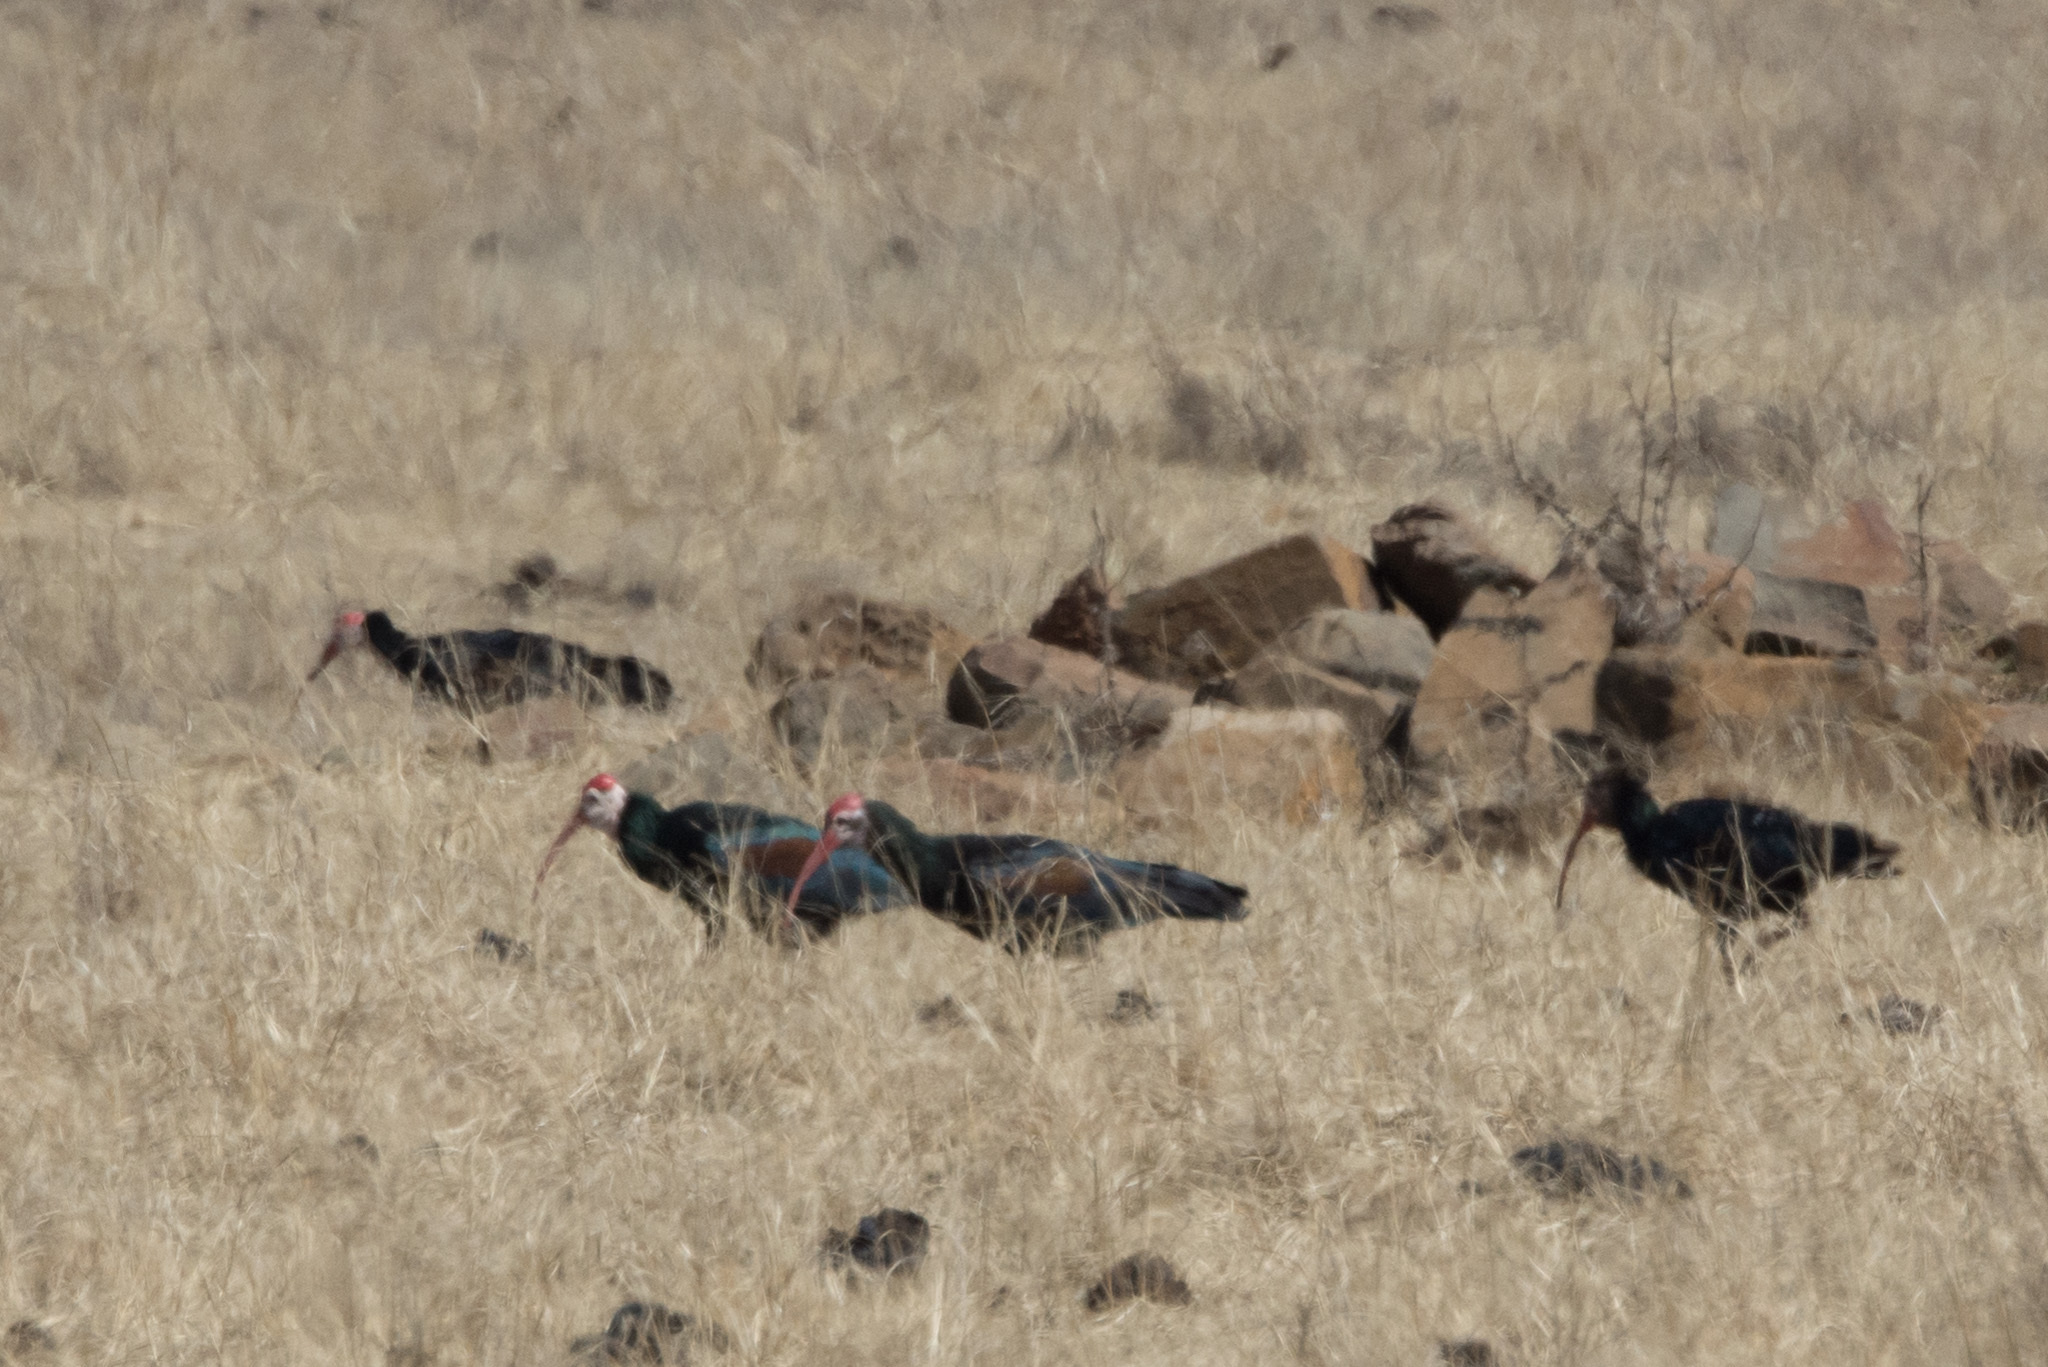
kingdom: Animalia
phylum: Chordata
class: Aves
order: Pelecaniformes
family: Threskiornithidae
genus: Geronticus
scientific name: Geronticus calvus
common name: Southern bald ibis
